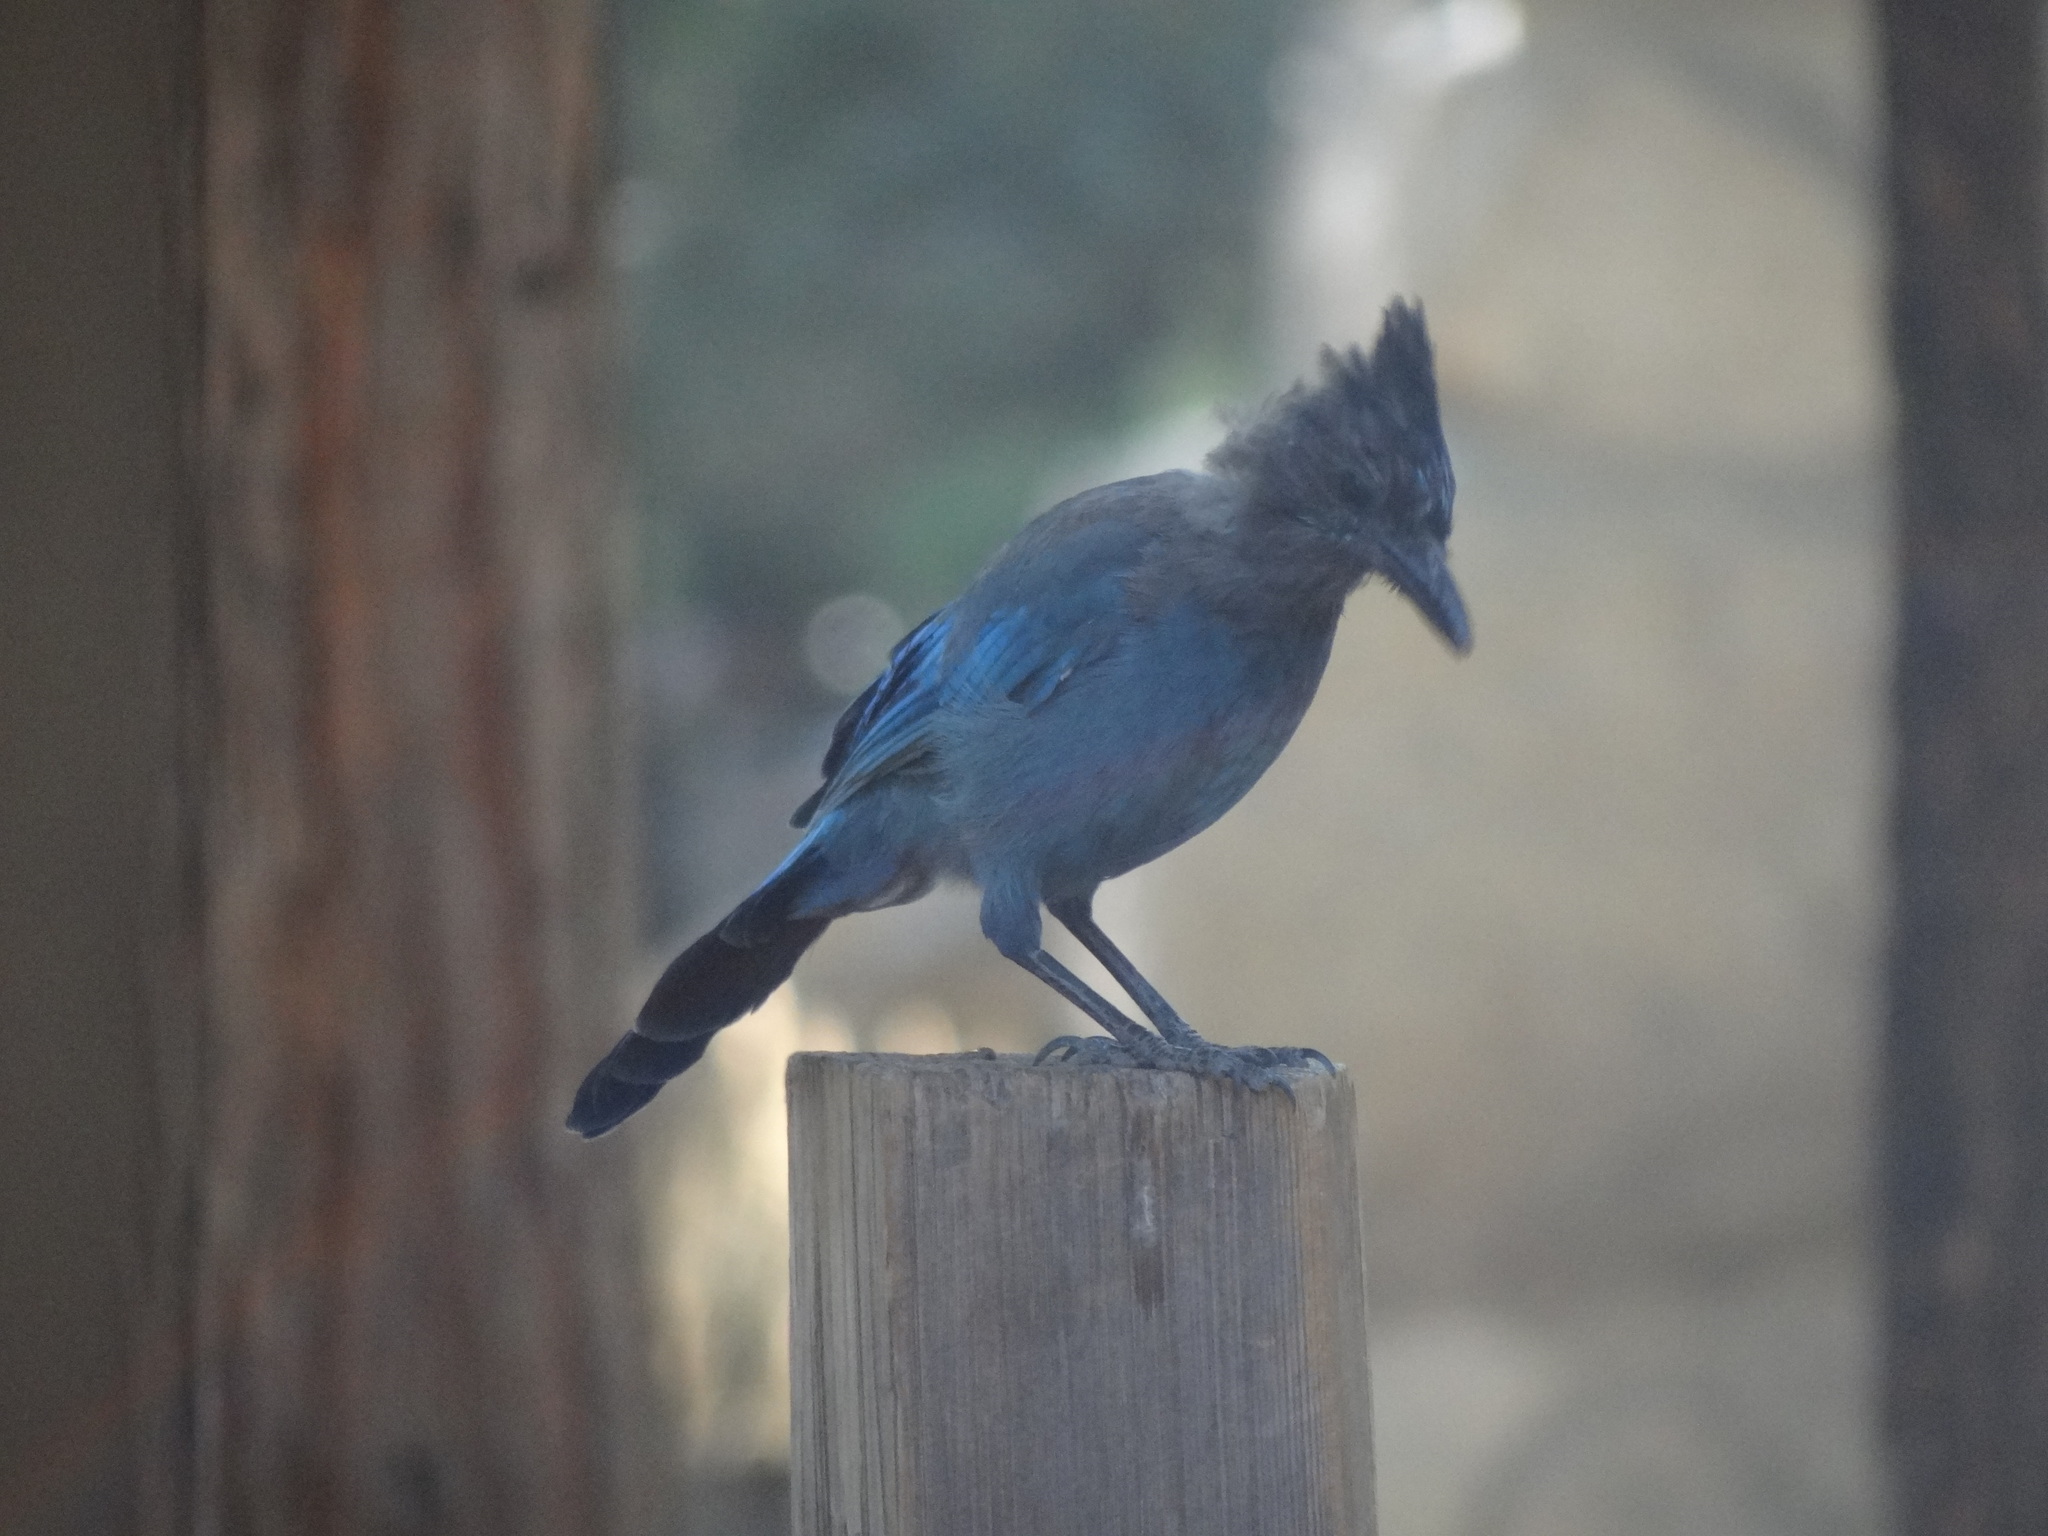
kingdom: Animalia
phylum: Chordata
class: Aves
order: Passeriformes
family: Corvidae
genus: Cyanocitta
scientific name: Cyanocitta stelleri
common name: Steller's jay
